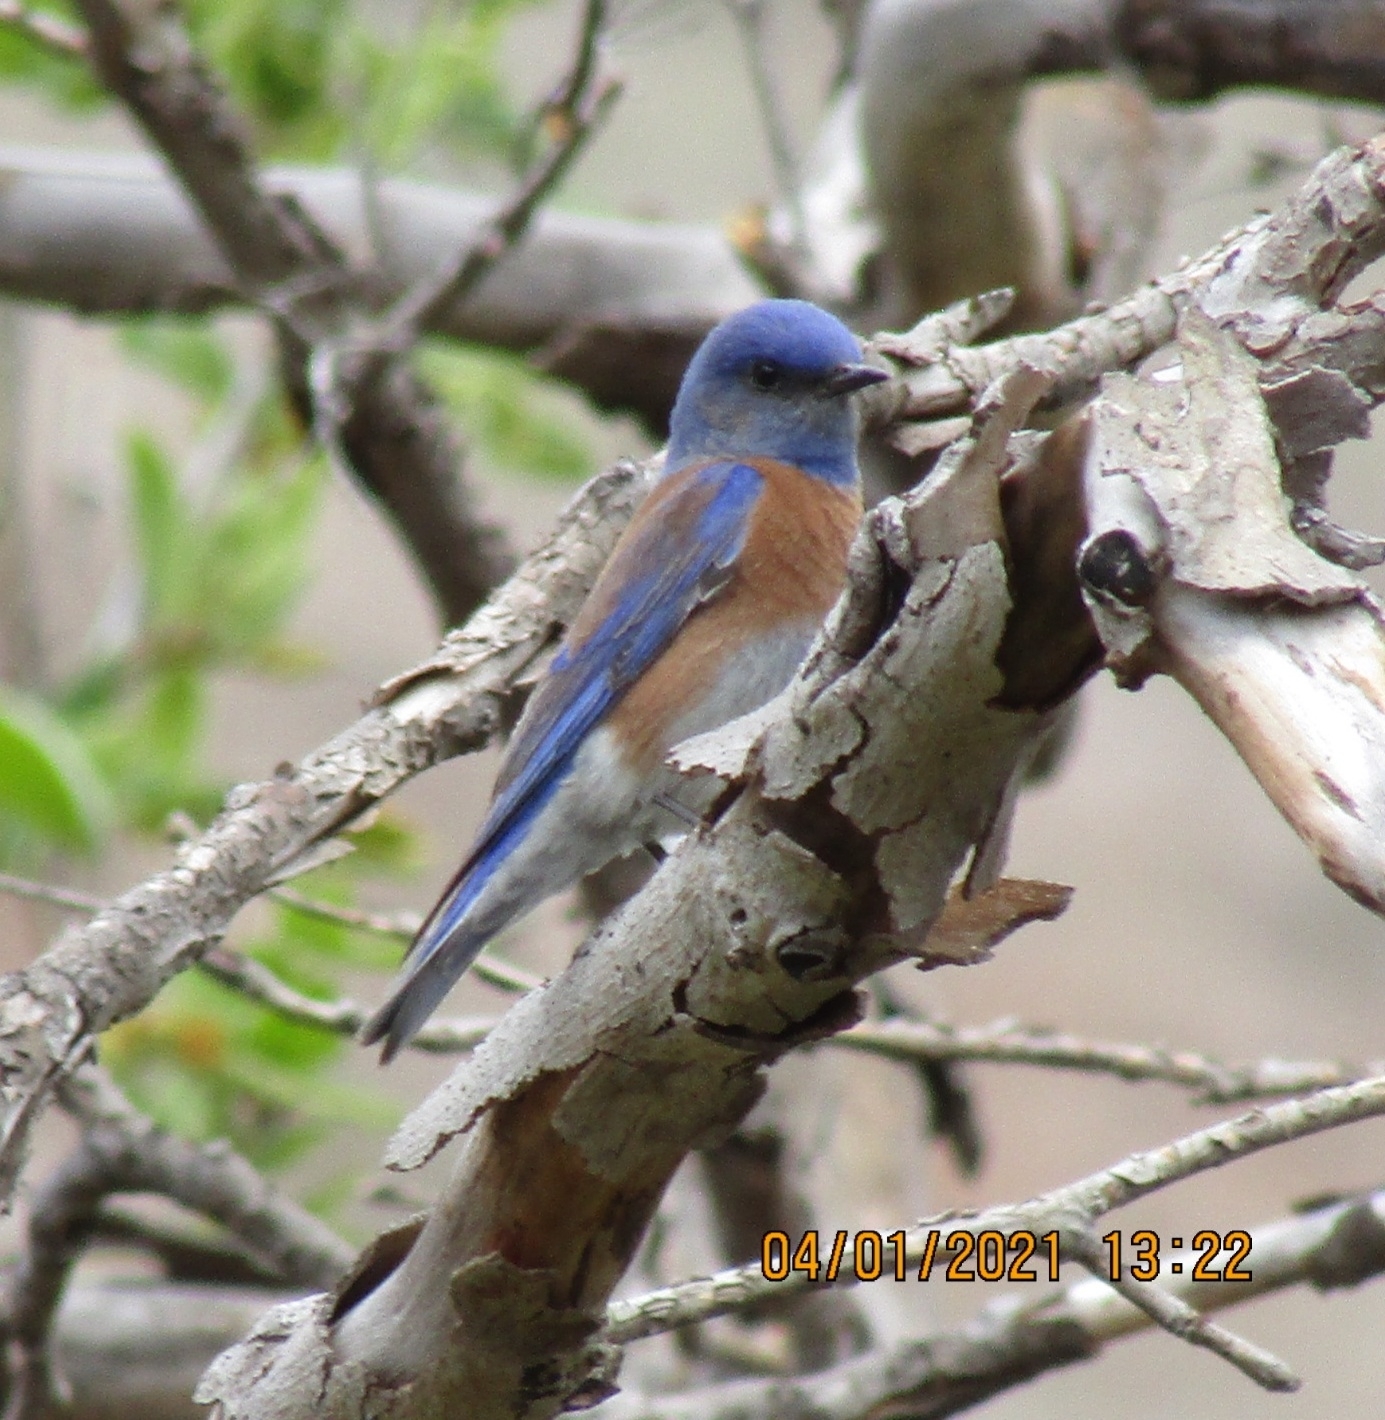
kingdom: Animalia
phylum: Chordata
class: Aves
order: Passeriformes
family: Turdidae
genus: Sialia
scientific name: Sialia mexicana
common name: Western bluebird
